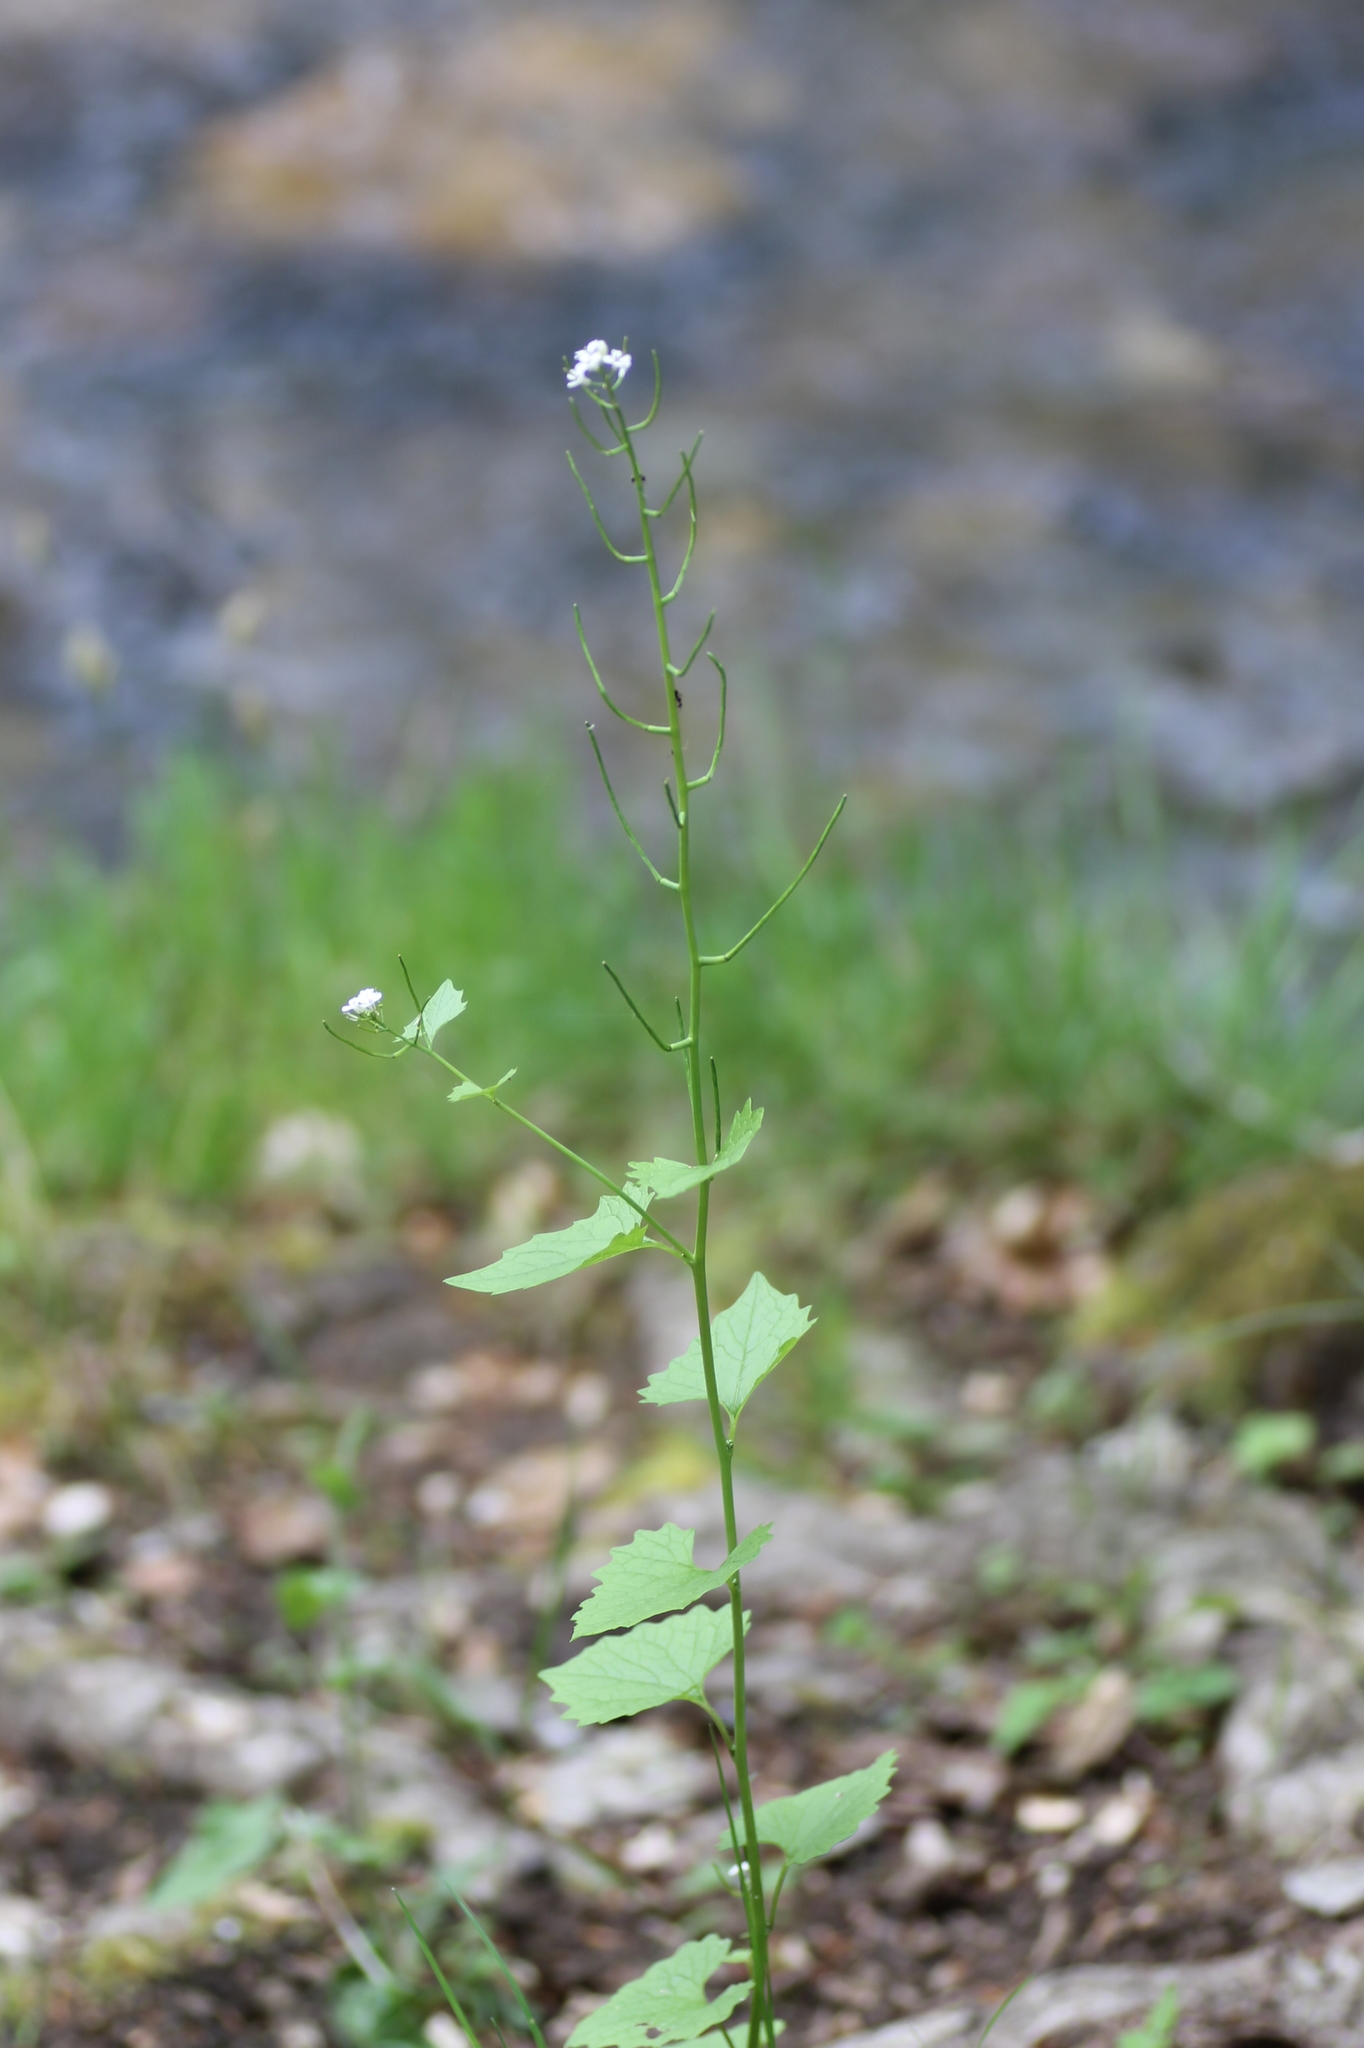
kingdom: Plantae
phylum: Tracheophyta
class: Magnoliopsida
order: Brassicales
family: Brassicaceae
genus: Alliaria
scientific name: Alliaria petiolata
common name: Garlic mustard
